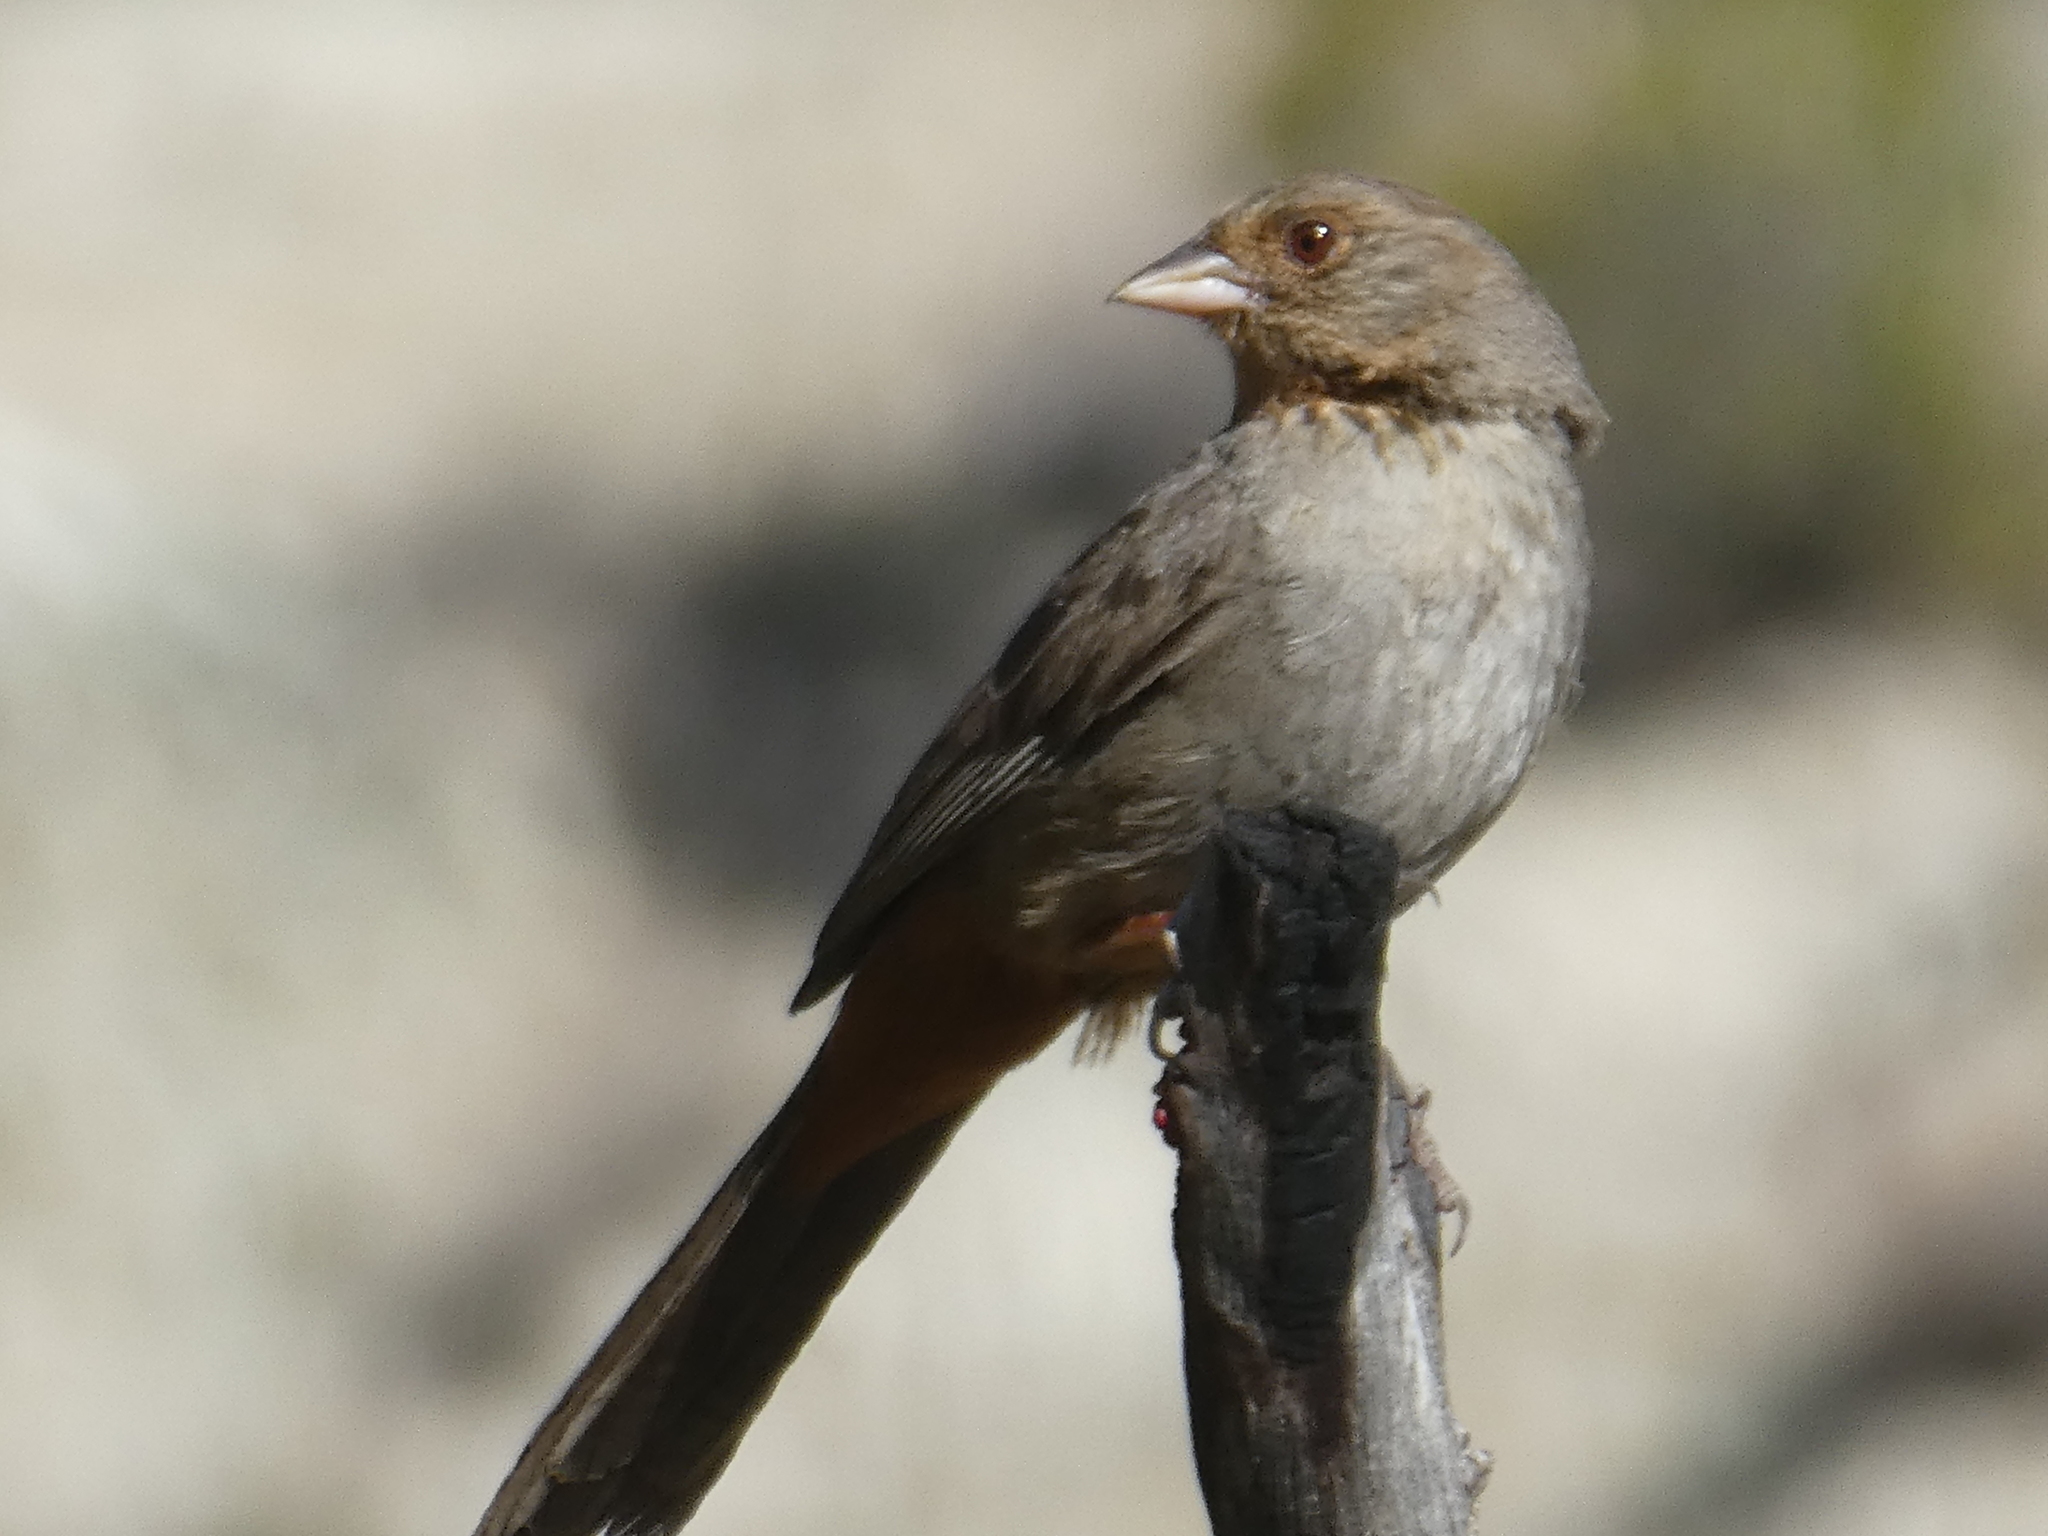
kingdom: Animalia
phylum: Chordata
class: Aves
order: Passeriformes
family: Passerellidae
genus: Melozone
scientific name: Melozone crissalis
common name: California towhee
